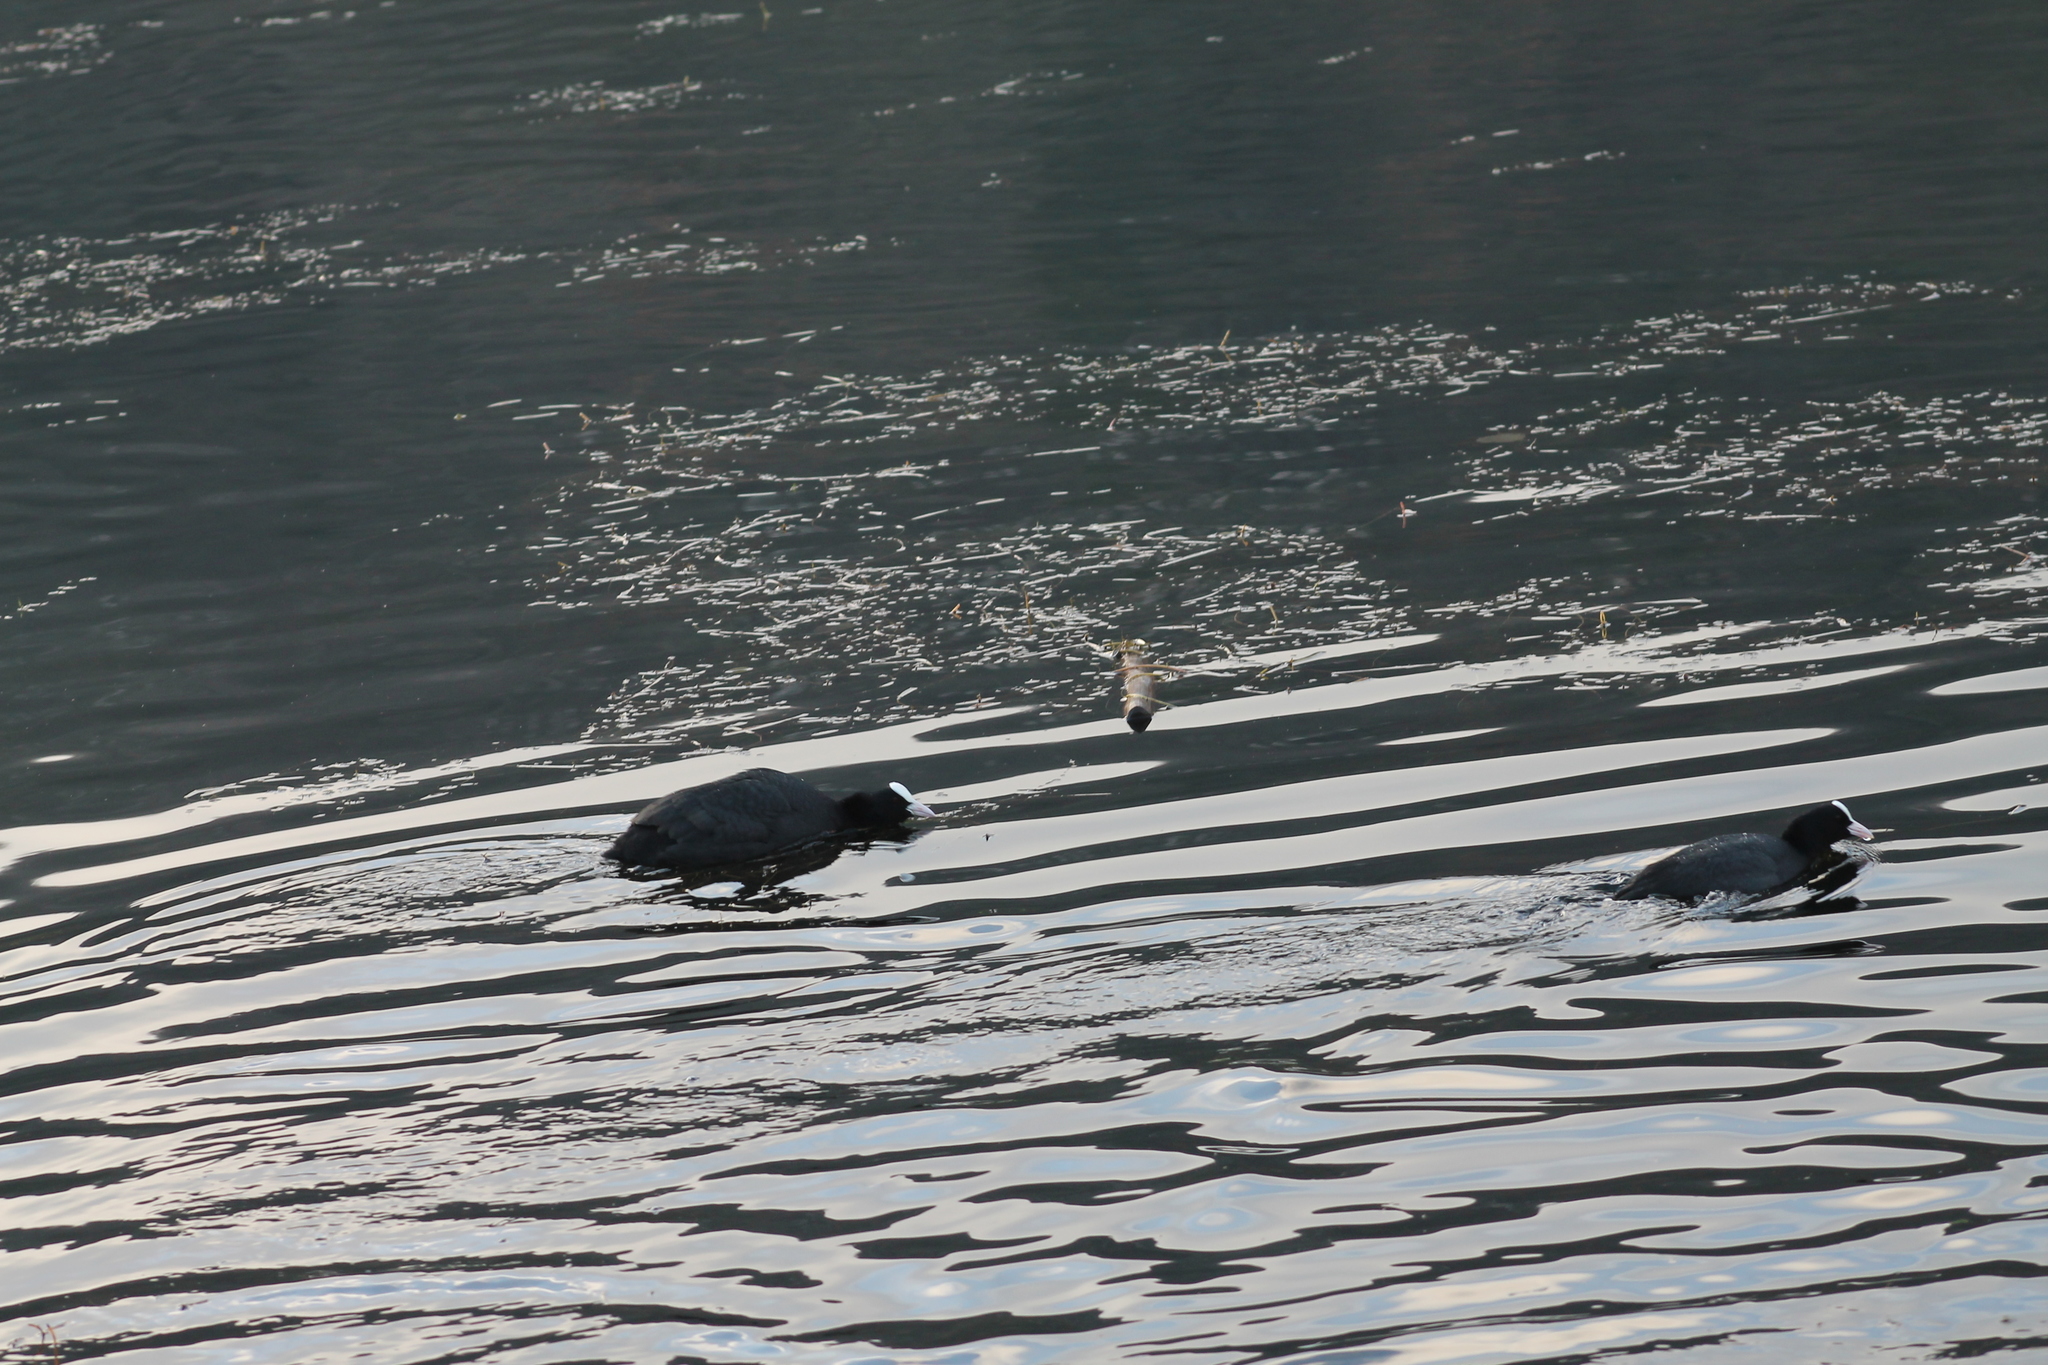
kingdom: Animalia
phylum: Chordata
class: Aves
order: Gruiformes
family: Rallidae
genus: Fulica
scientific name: Fulica atra
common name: Eurasian coot
